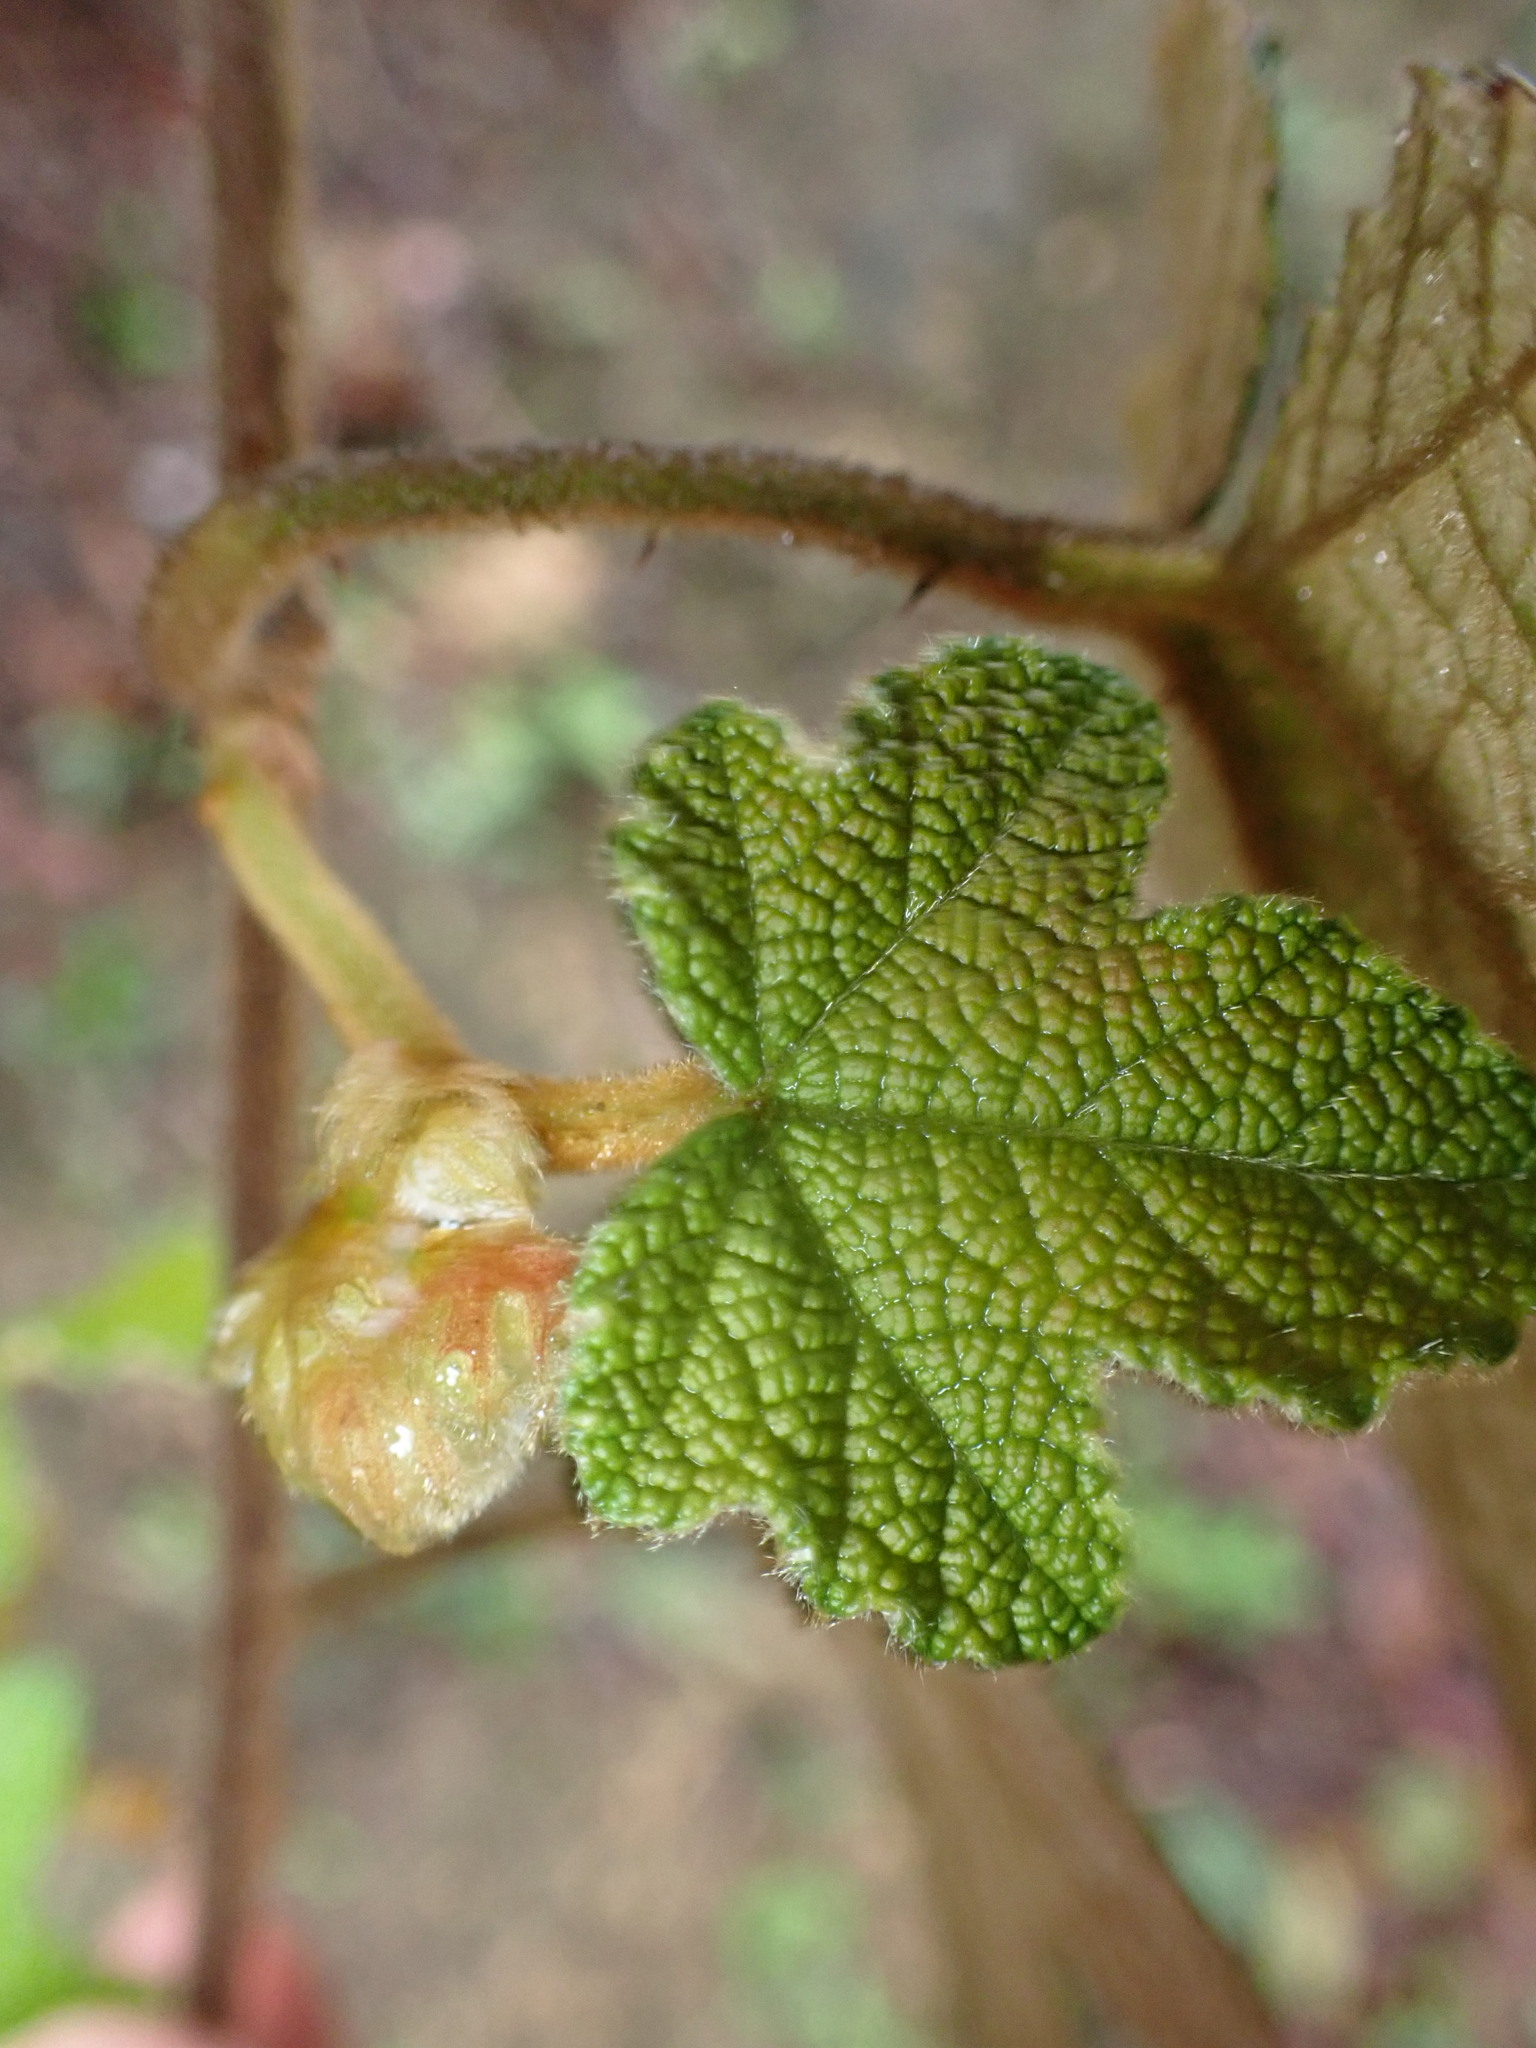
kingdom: Plantae
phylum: Tracheophyta
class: Magnoliopsida
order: Rosales
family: Rosaceae
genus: Rubus
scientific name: Rubus reflexus
